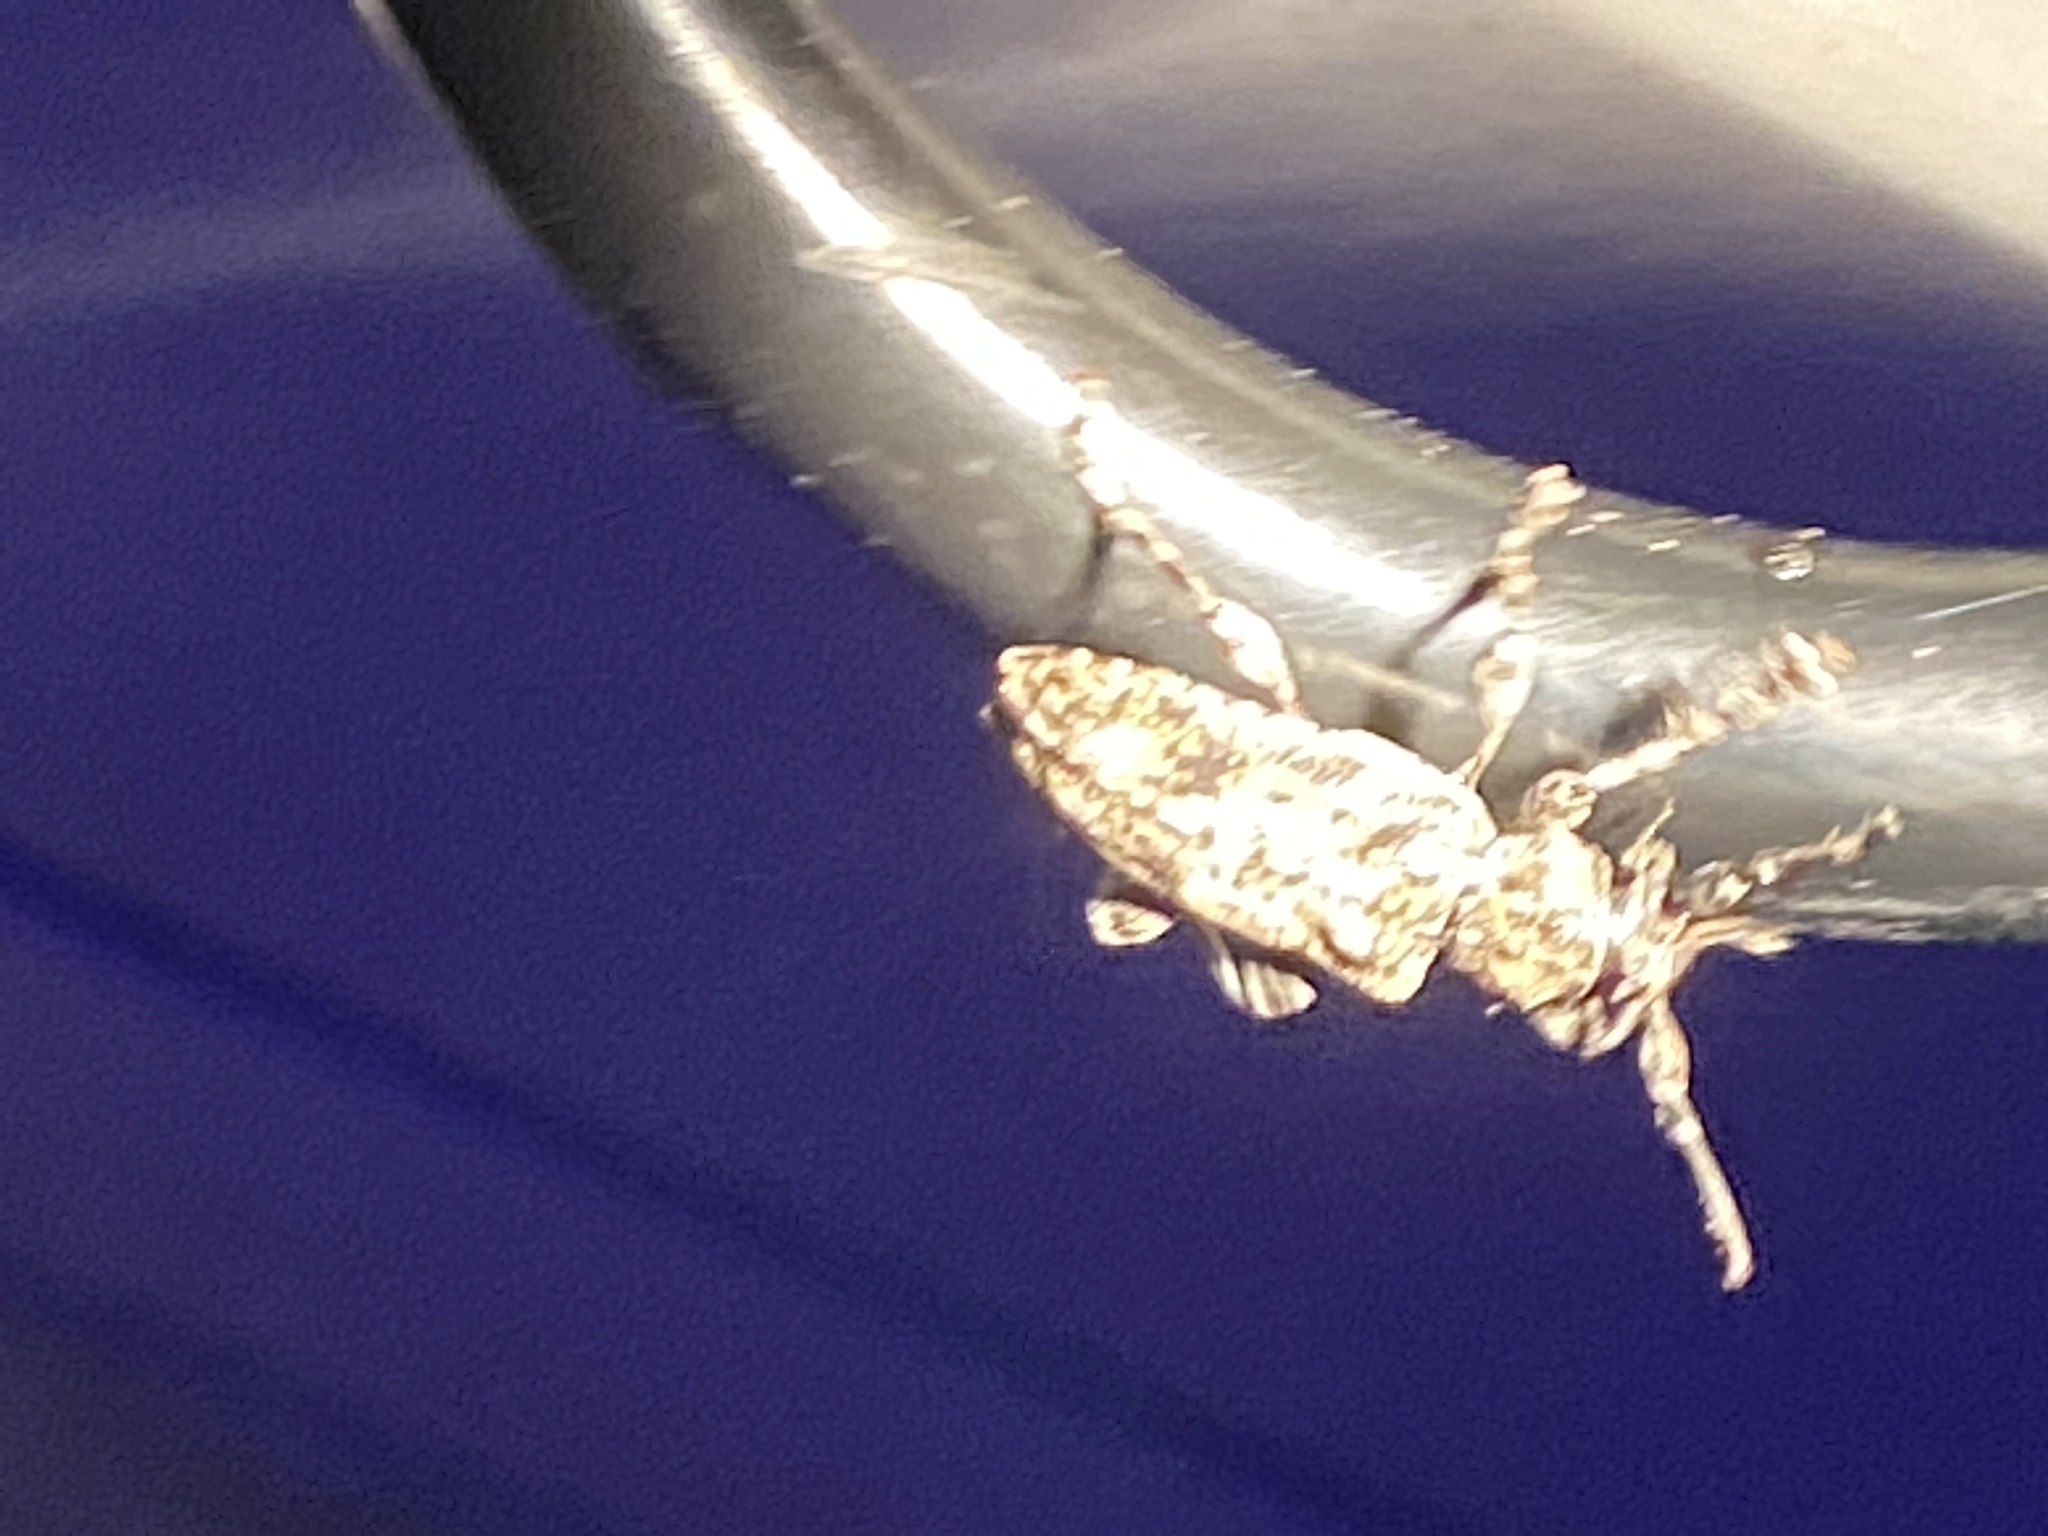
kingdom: Animalia
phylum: Arthropoda
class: Insecta
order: Coleoptera
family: Cerambycidae
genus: Aegomorphus
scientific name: Aegomorphus modestus
